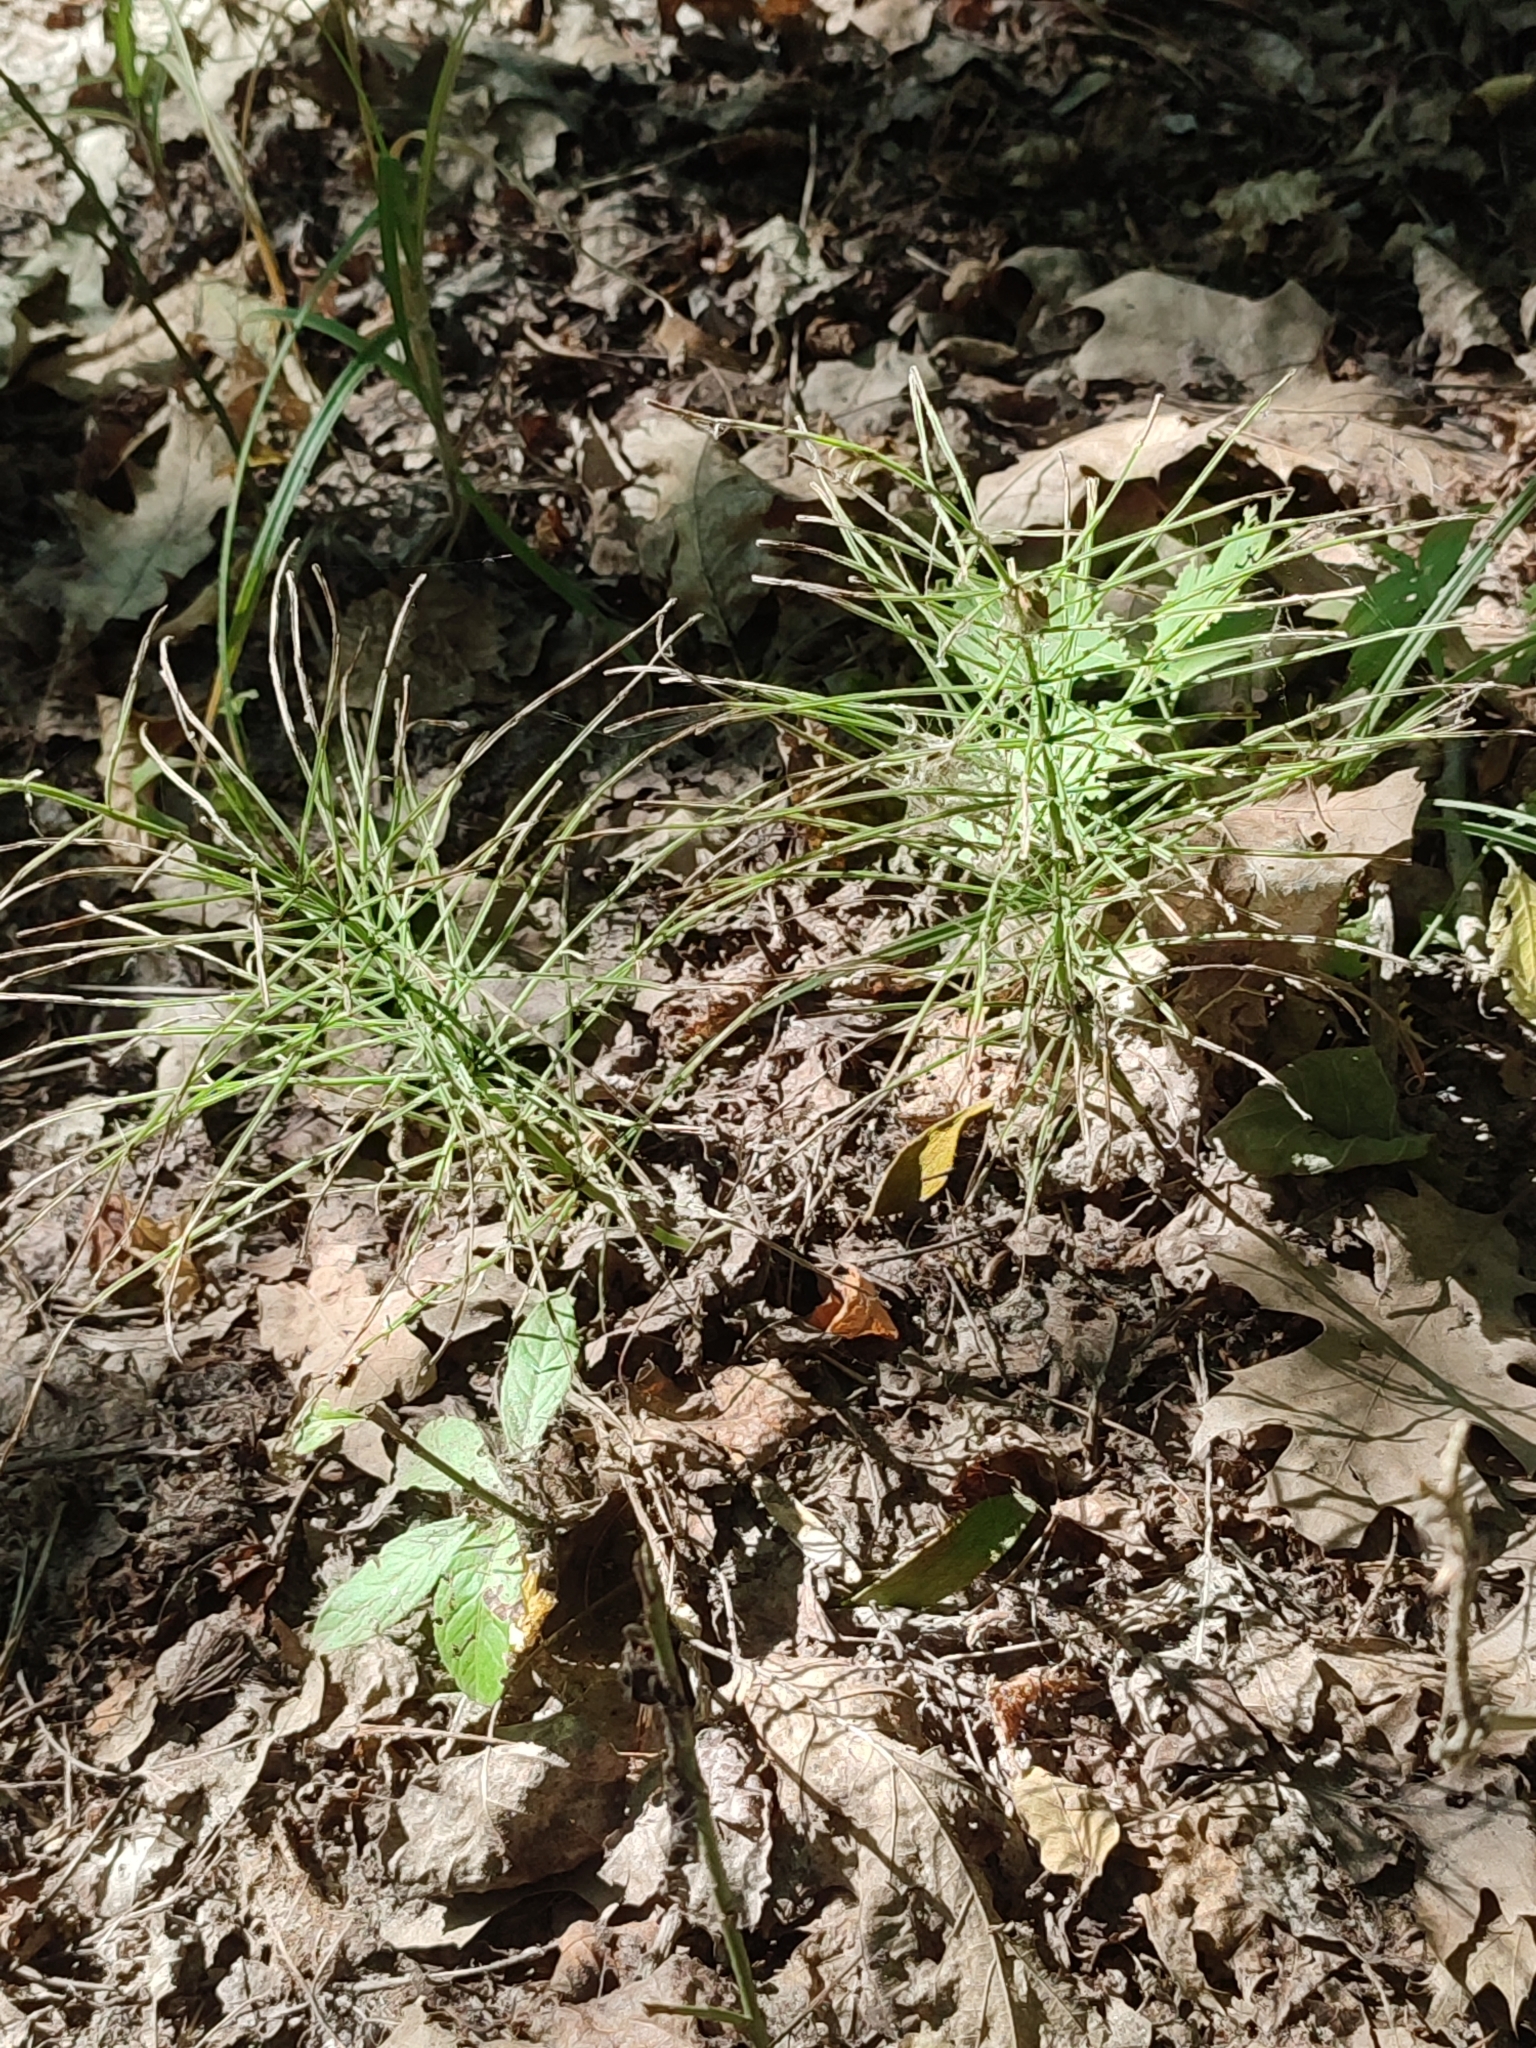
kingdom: Plantae
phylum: Tracheophyta
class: Polypodiopsida
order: Equisetales
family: Equisetaceae
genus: Equisetum
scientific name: Equisetum arvense
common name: Field horsetail
